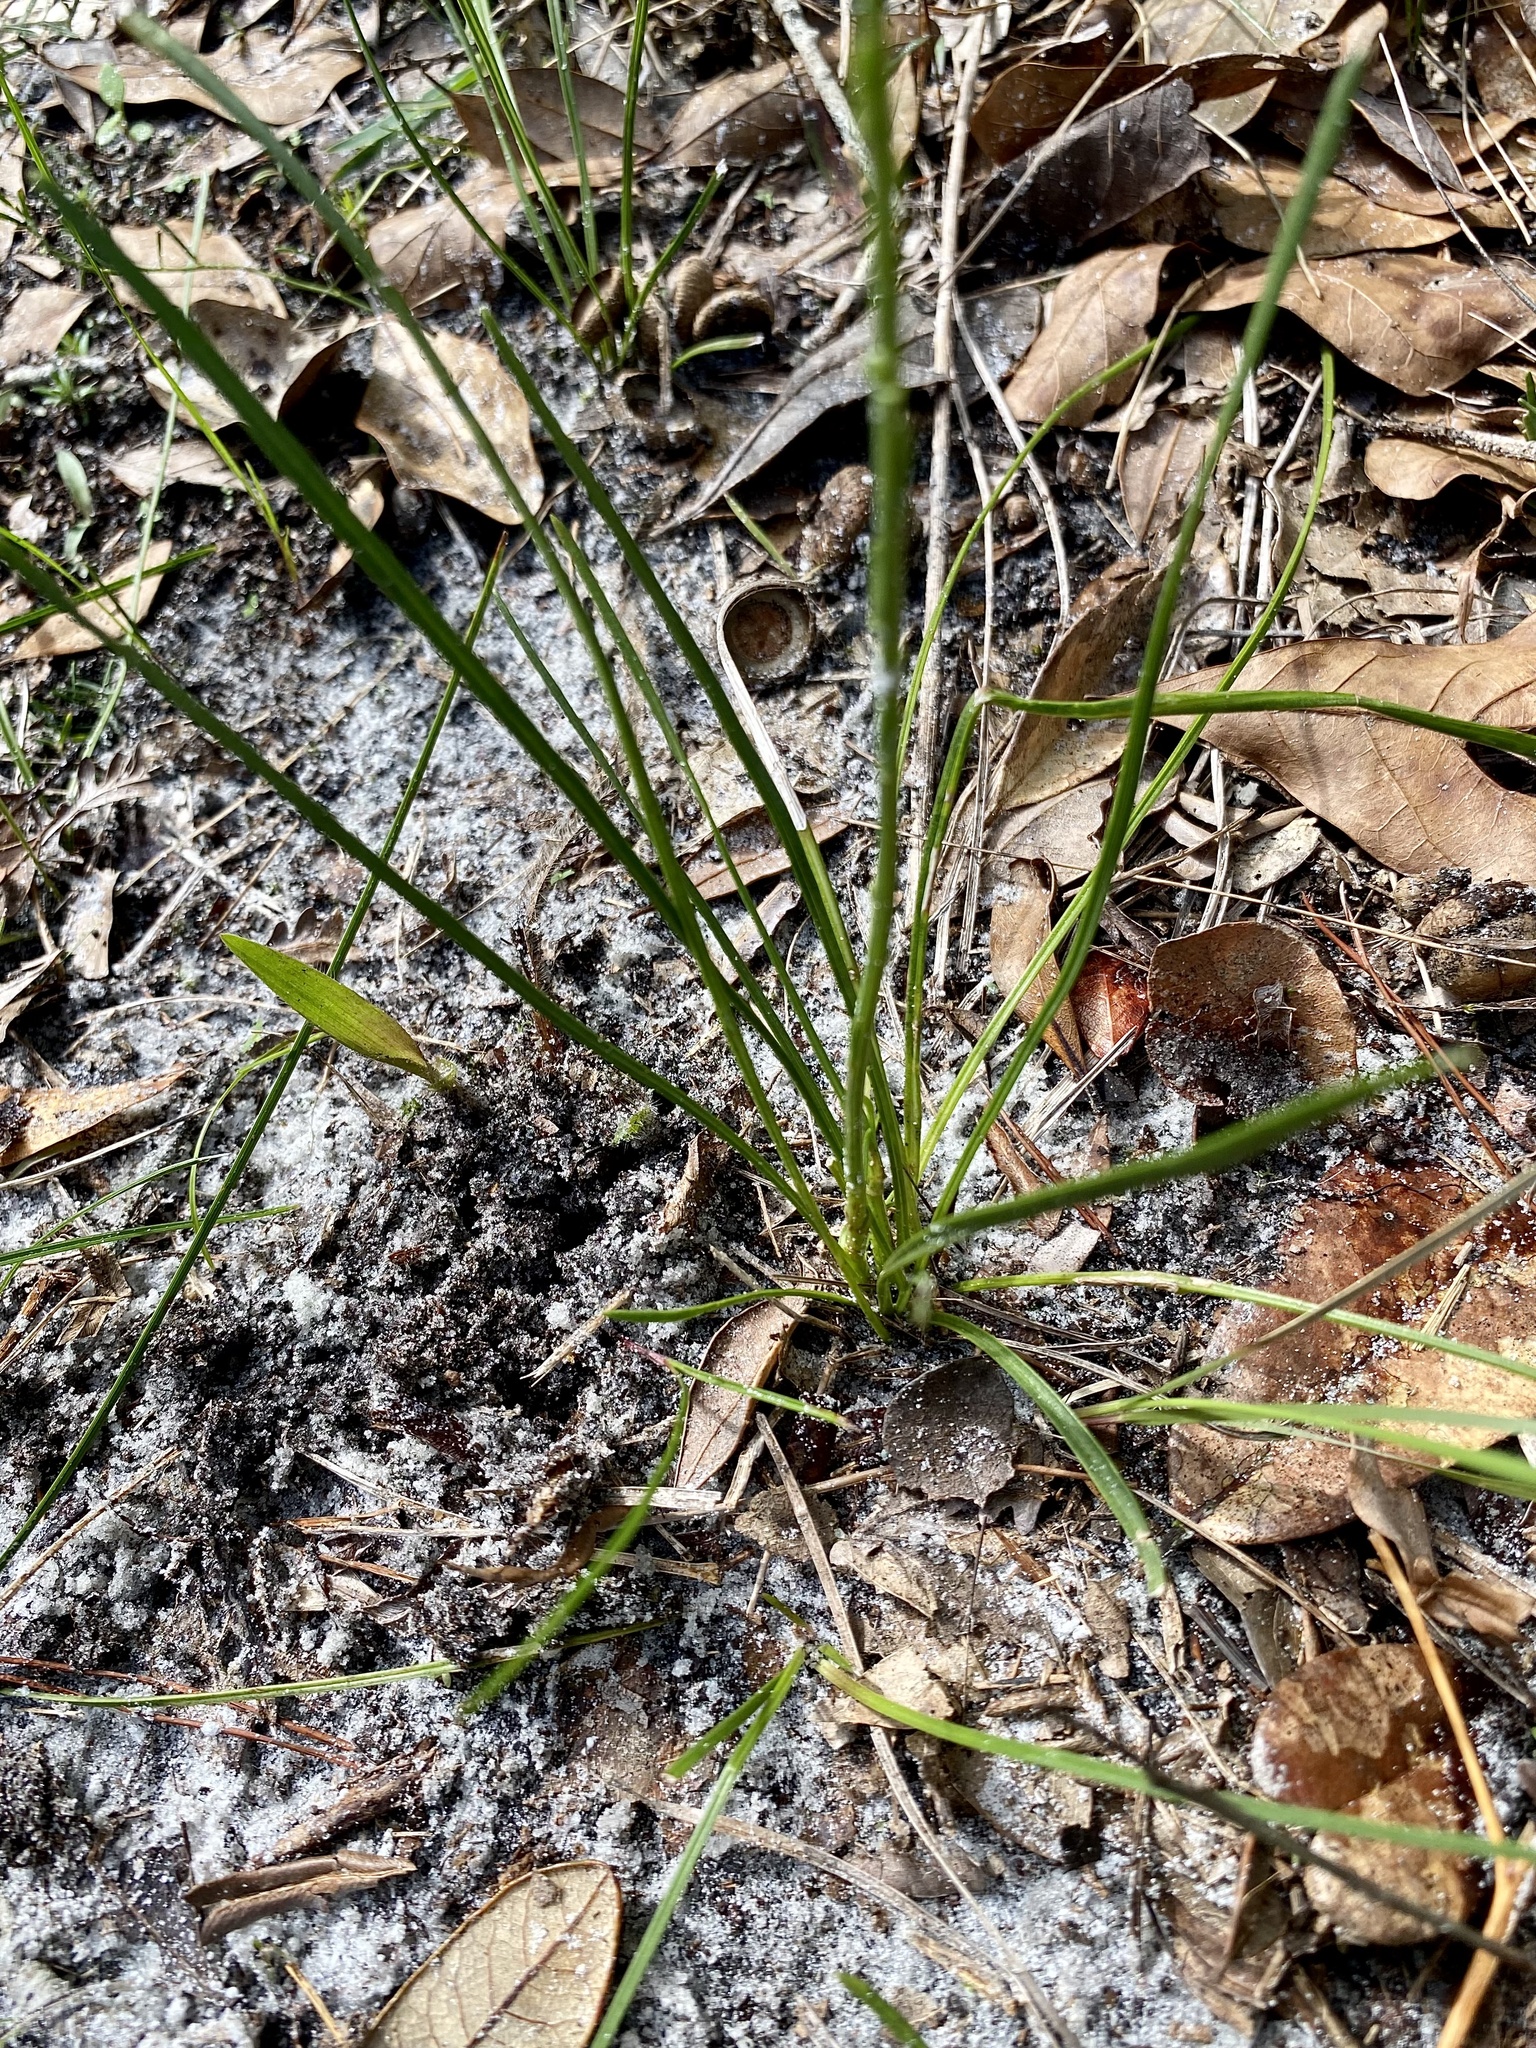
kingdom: Plantae
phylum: Tracheophyta
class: Magnoliopsida
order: Asterales
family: Asteraceae
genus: Liatris
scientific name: Liatris quadriflora
